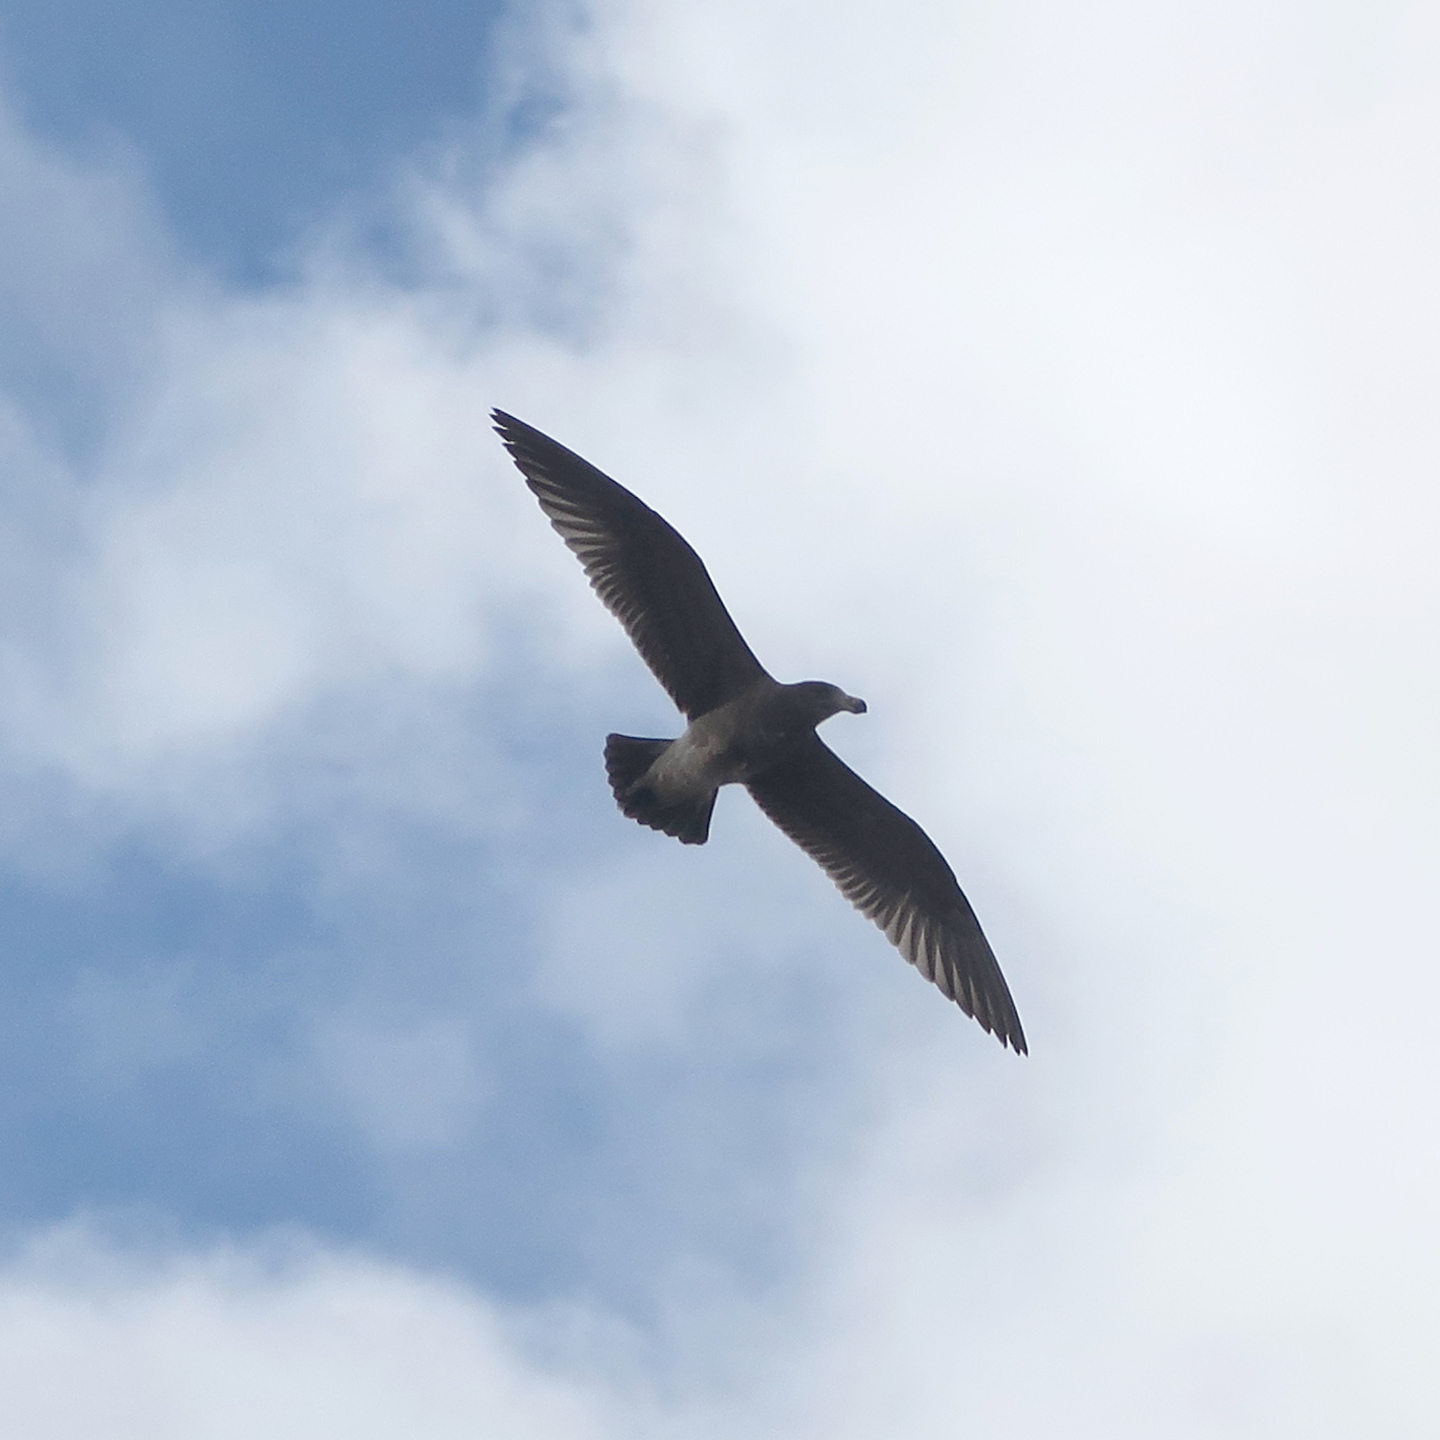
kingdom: Animalia
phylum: Chordata
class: Aves
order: Charadriiformes
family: Laridae
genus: Larus
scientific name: Larus pacificus
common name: Pacific gull
